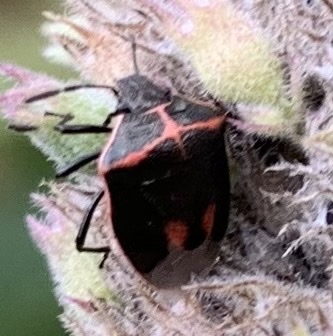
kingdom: Animalia
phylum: Arthropoda
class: Insecta
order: Hemiptera
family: Pentatomidae
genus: Cosmopepla
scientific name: Cosmopepla lintneriana
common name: Twice-stabbed stink bug
